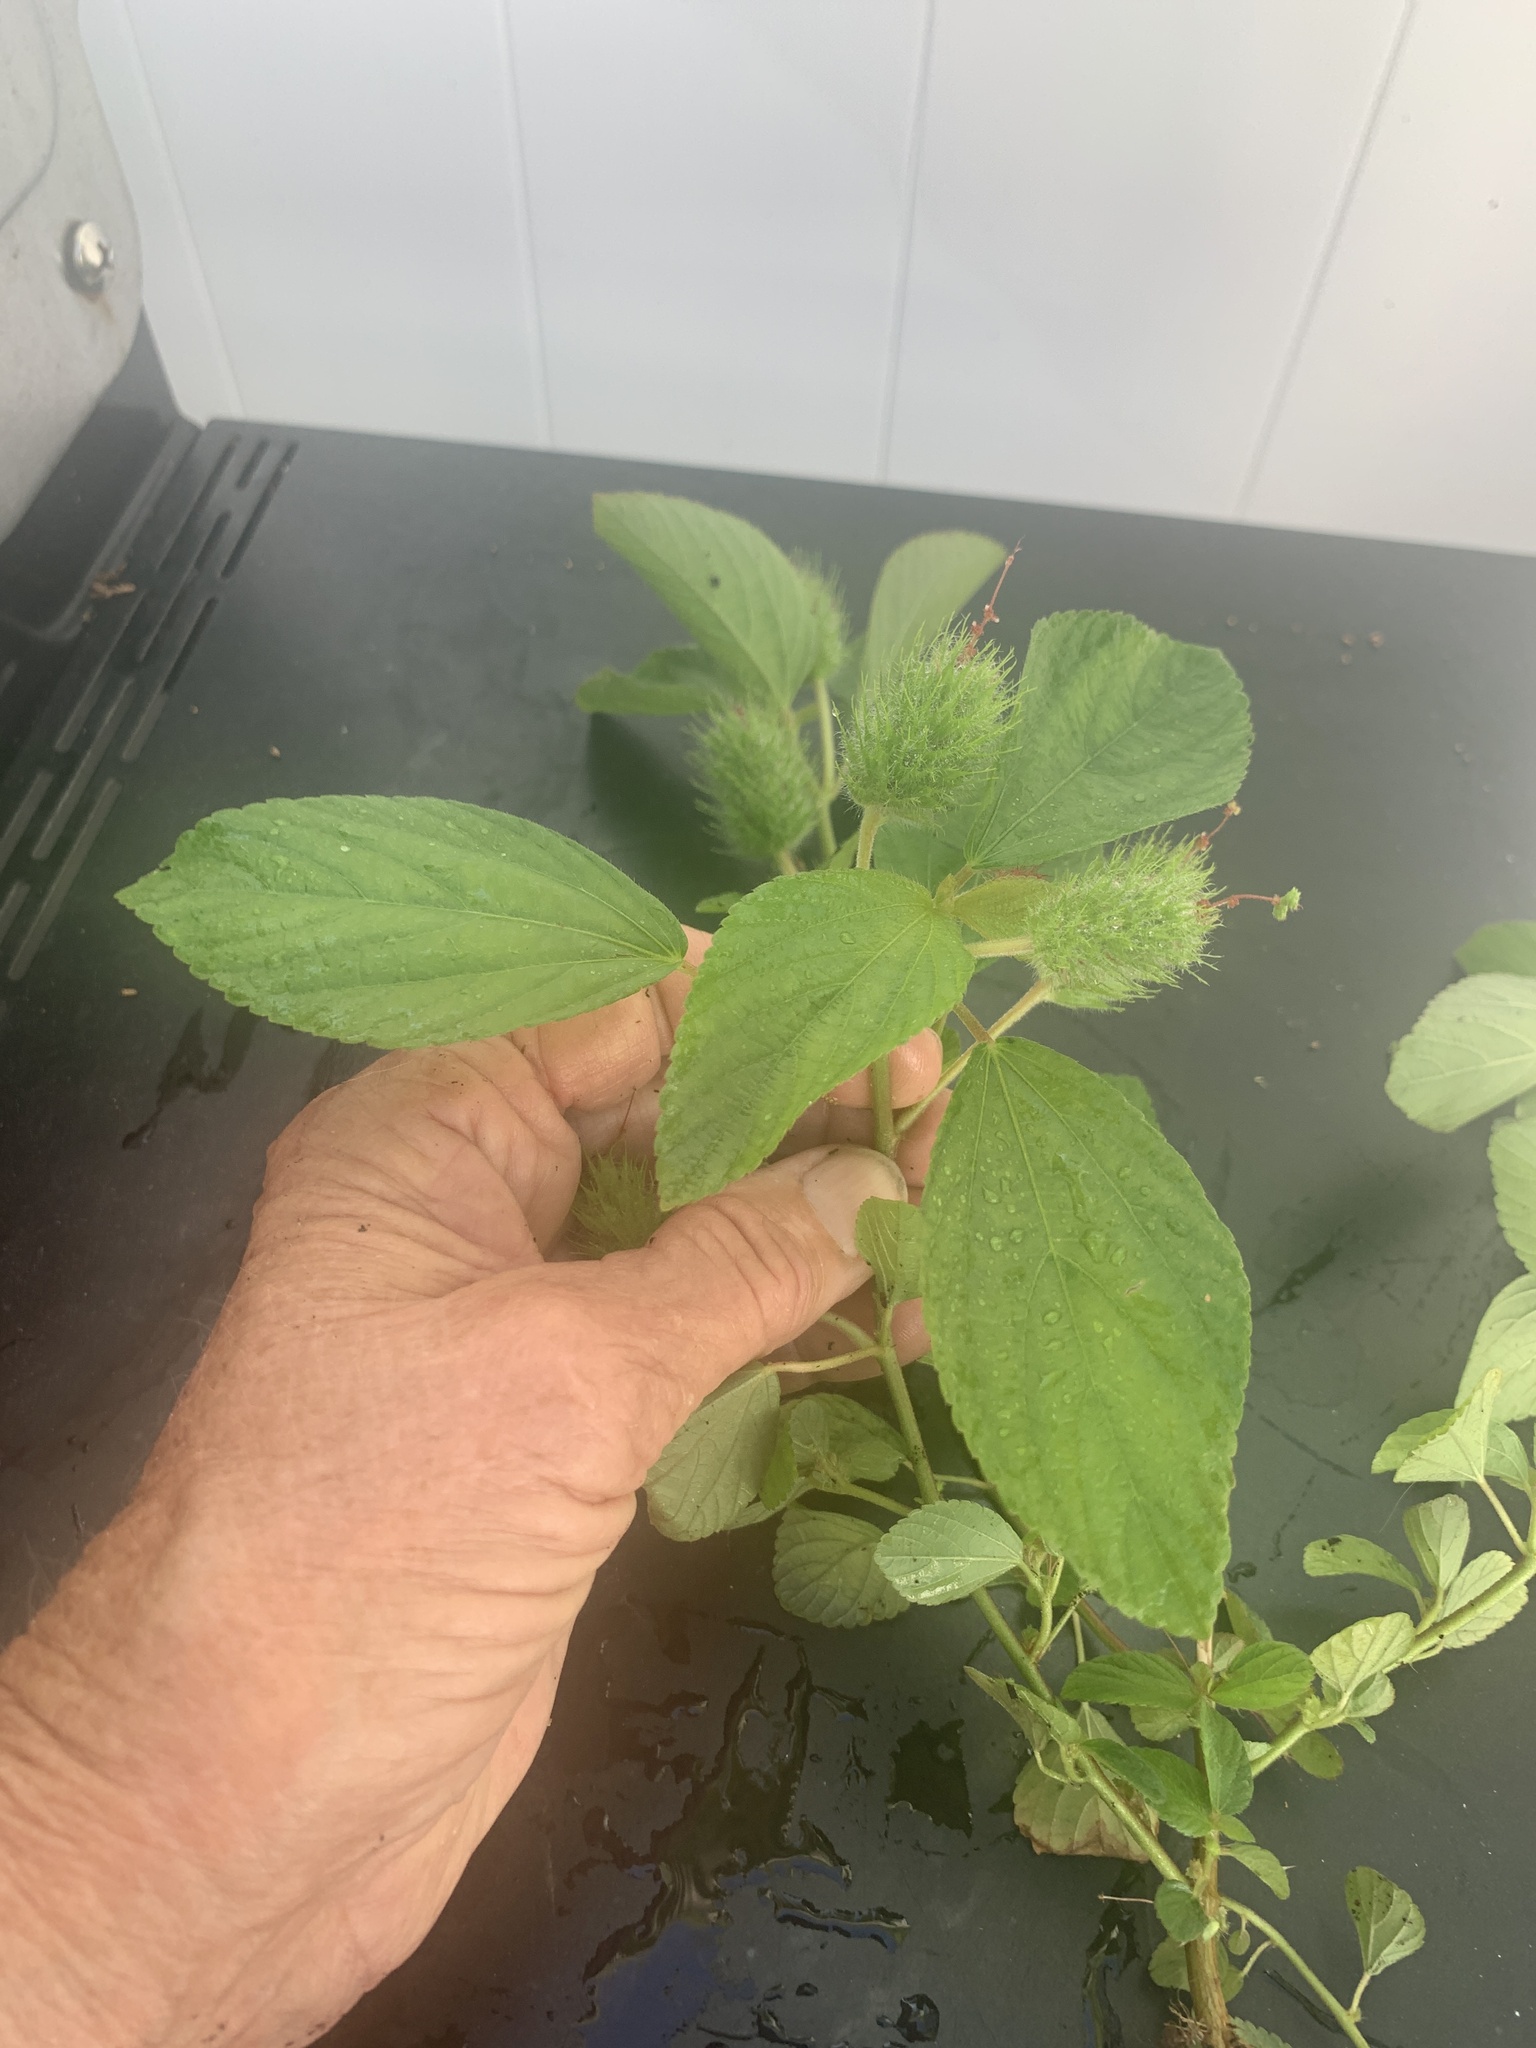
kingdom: Plantae
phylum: Tracheophyta
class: Magnoliopsida
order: Malpighiales
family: Euphorbiaceae
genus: Acalypha
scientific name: Acalypha arvensis
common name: Field copperleaf
